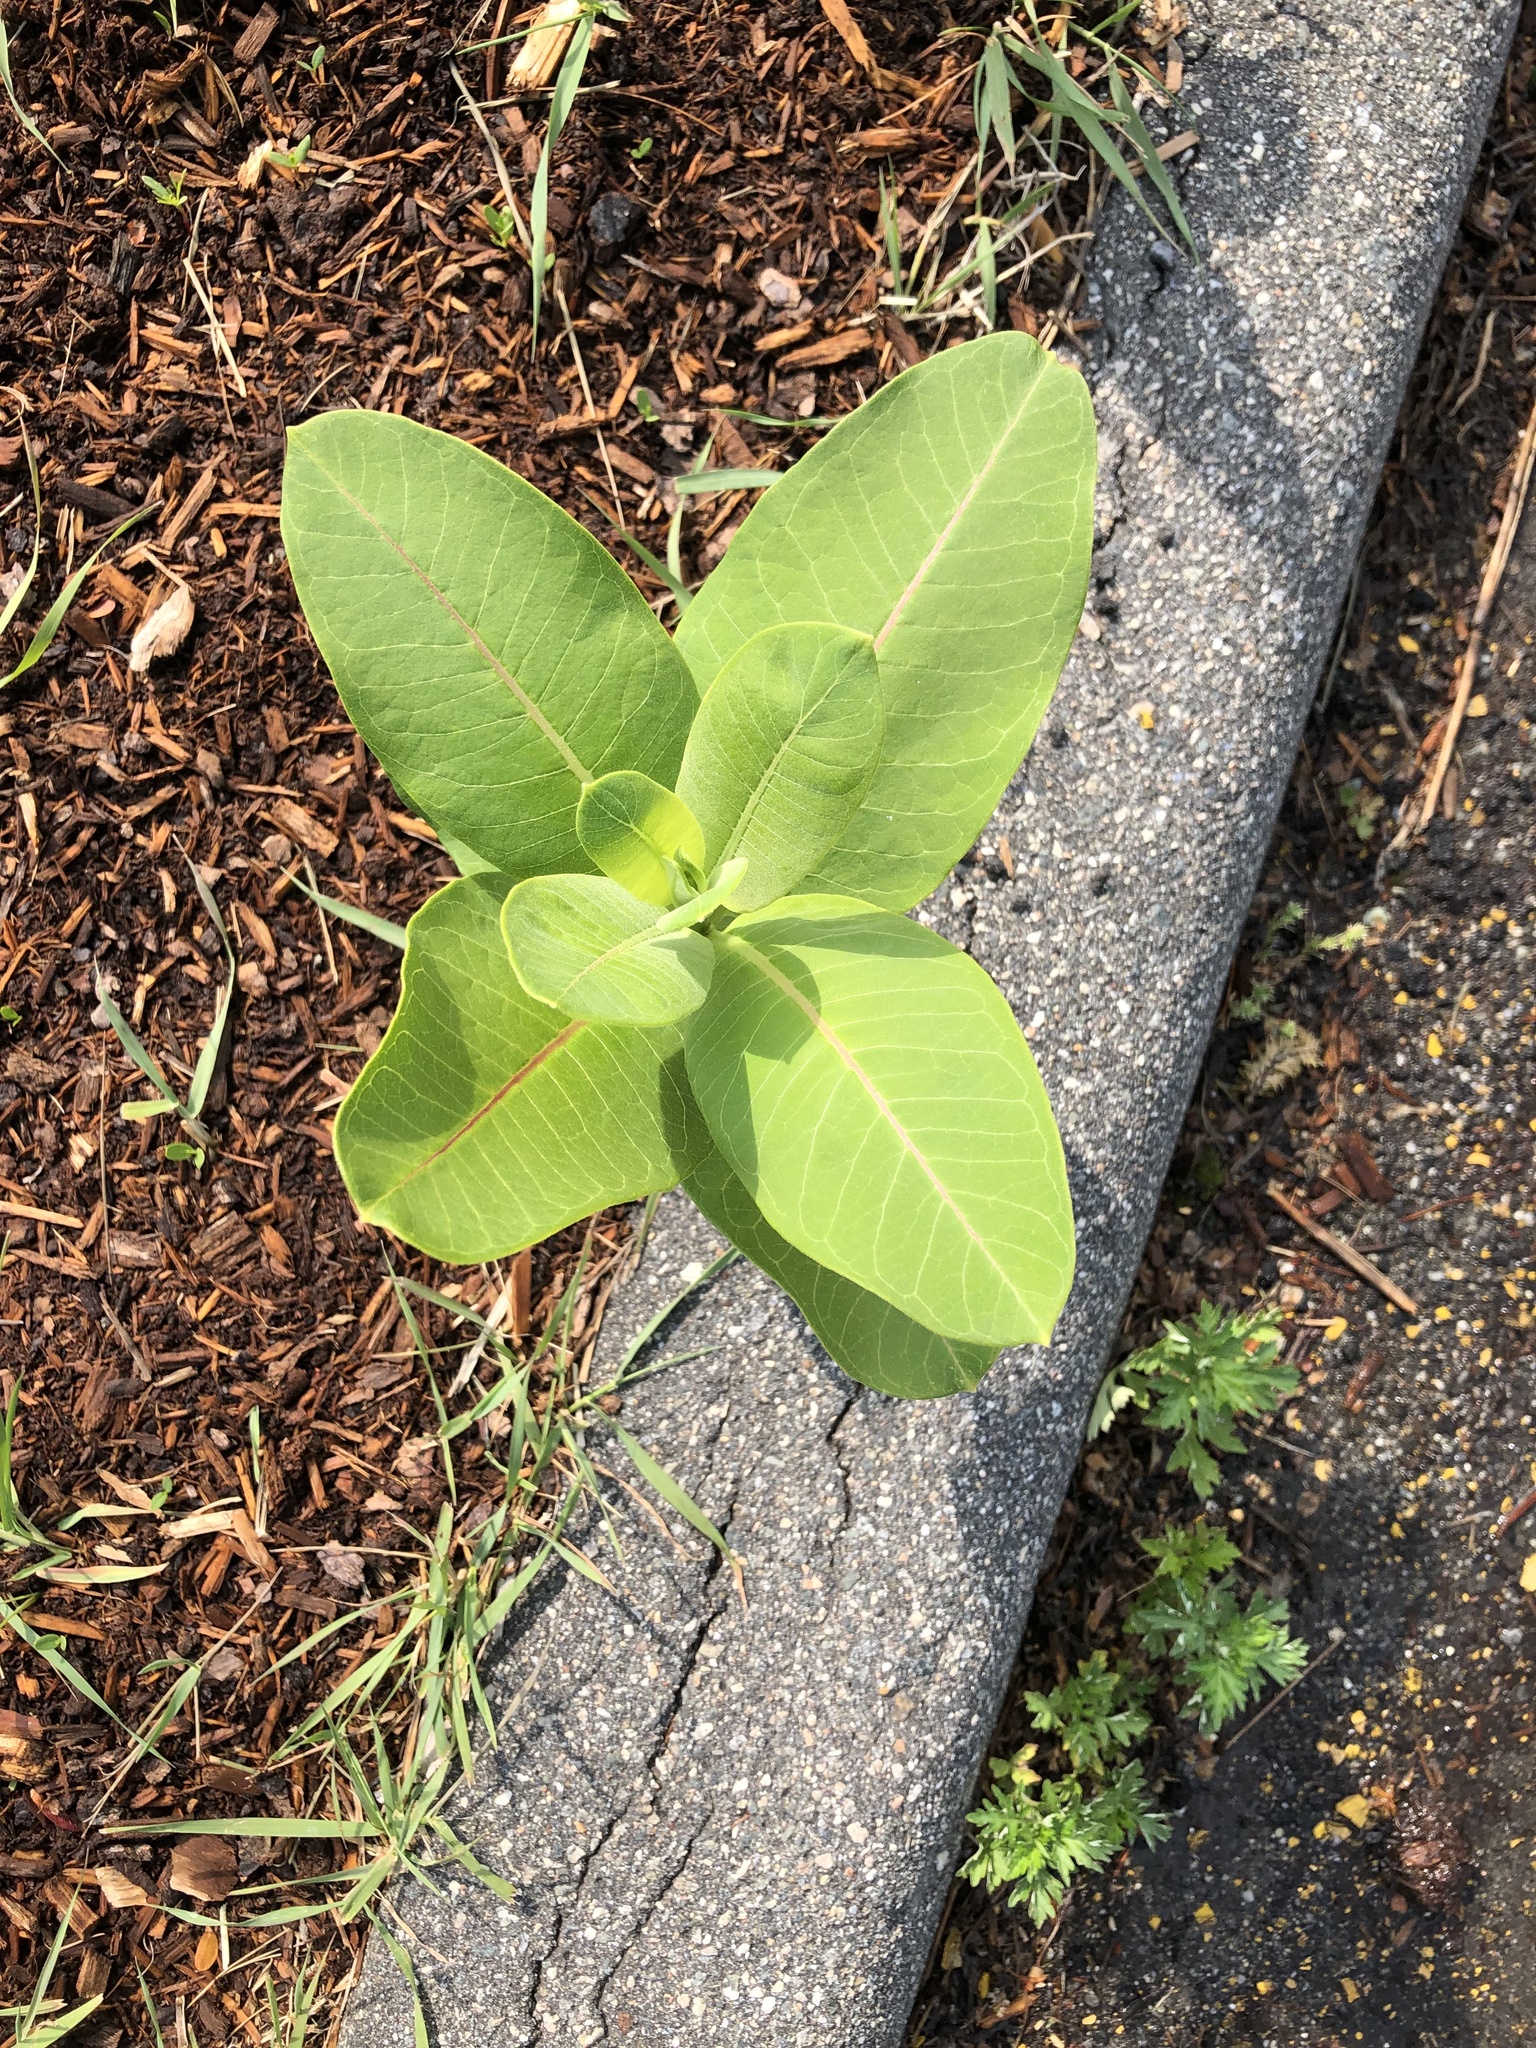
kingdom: Plantae
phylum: Tracheophyta
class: Magnoliopsida
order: Gentianales
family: Apocynaceae
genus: Asclepias
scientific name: Asclepias syriaca
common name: Common milkweed
